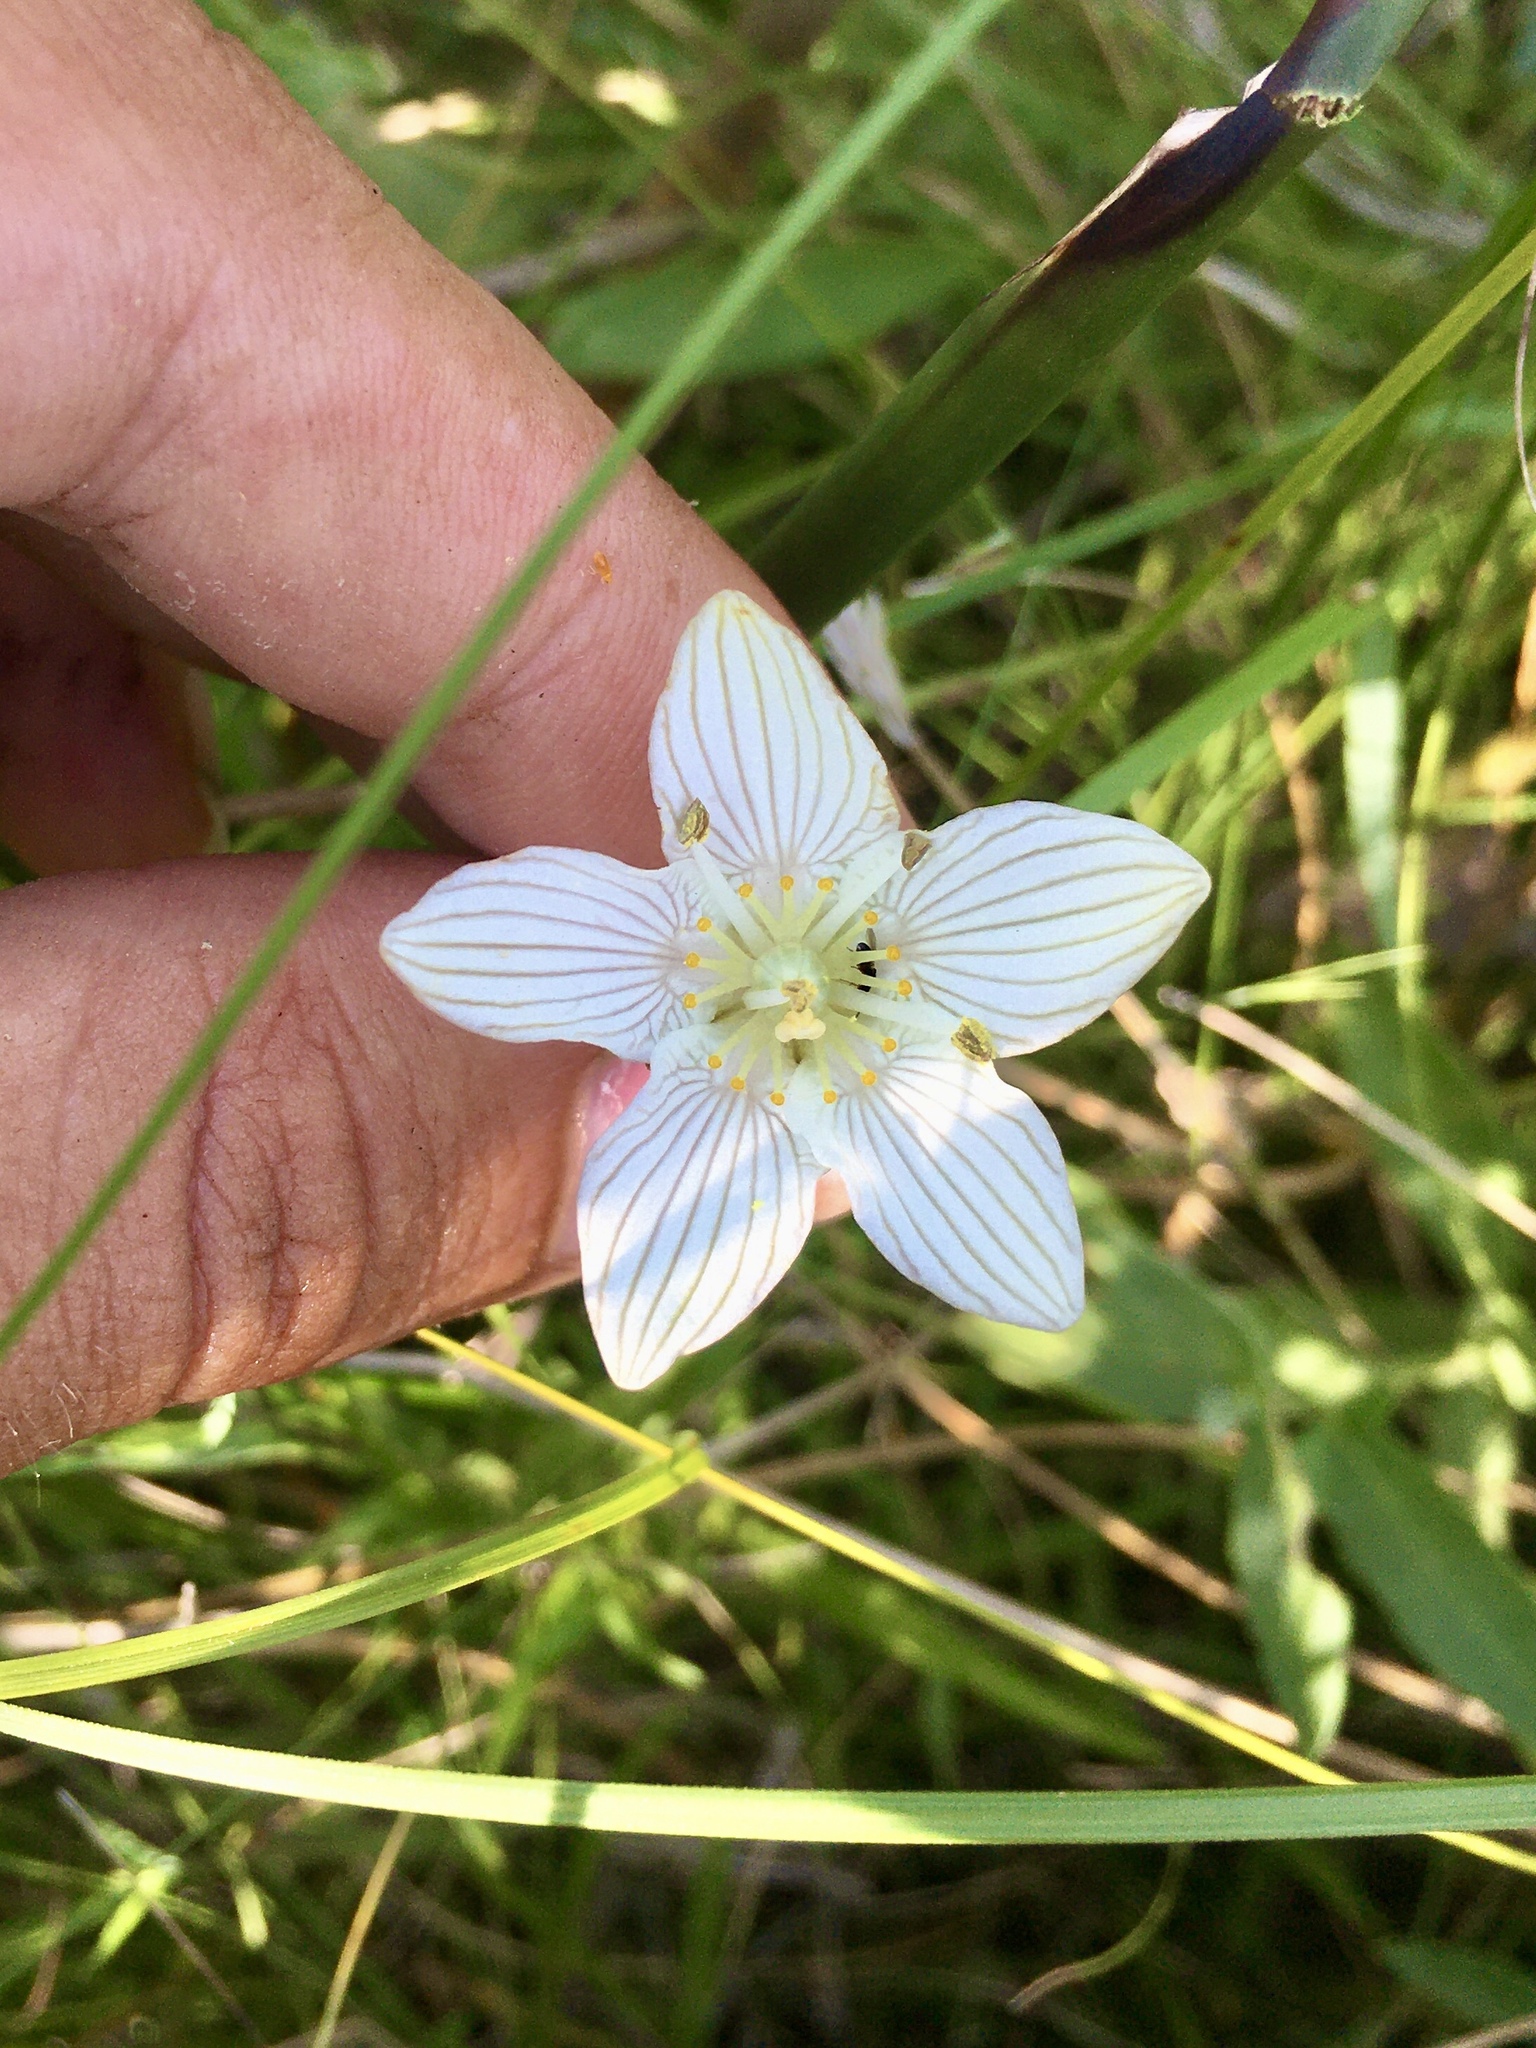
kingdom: Plantae
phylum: Tracheophyta
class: Magnoliopsida
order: Celastrales
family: Parnassiaceae
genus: Parnassia
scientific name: Parnassia glauca
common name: American grass-of-parnassus
